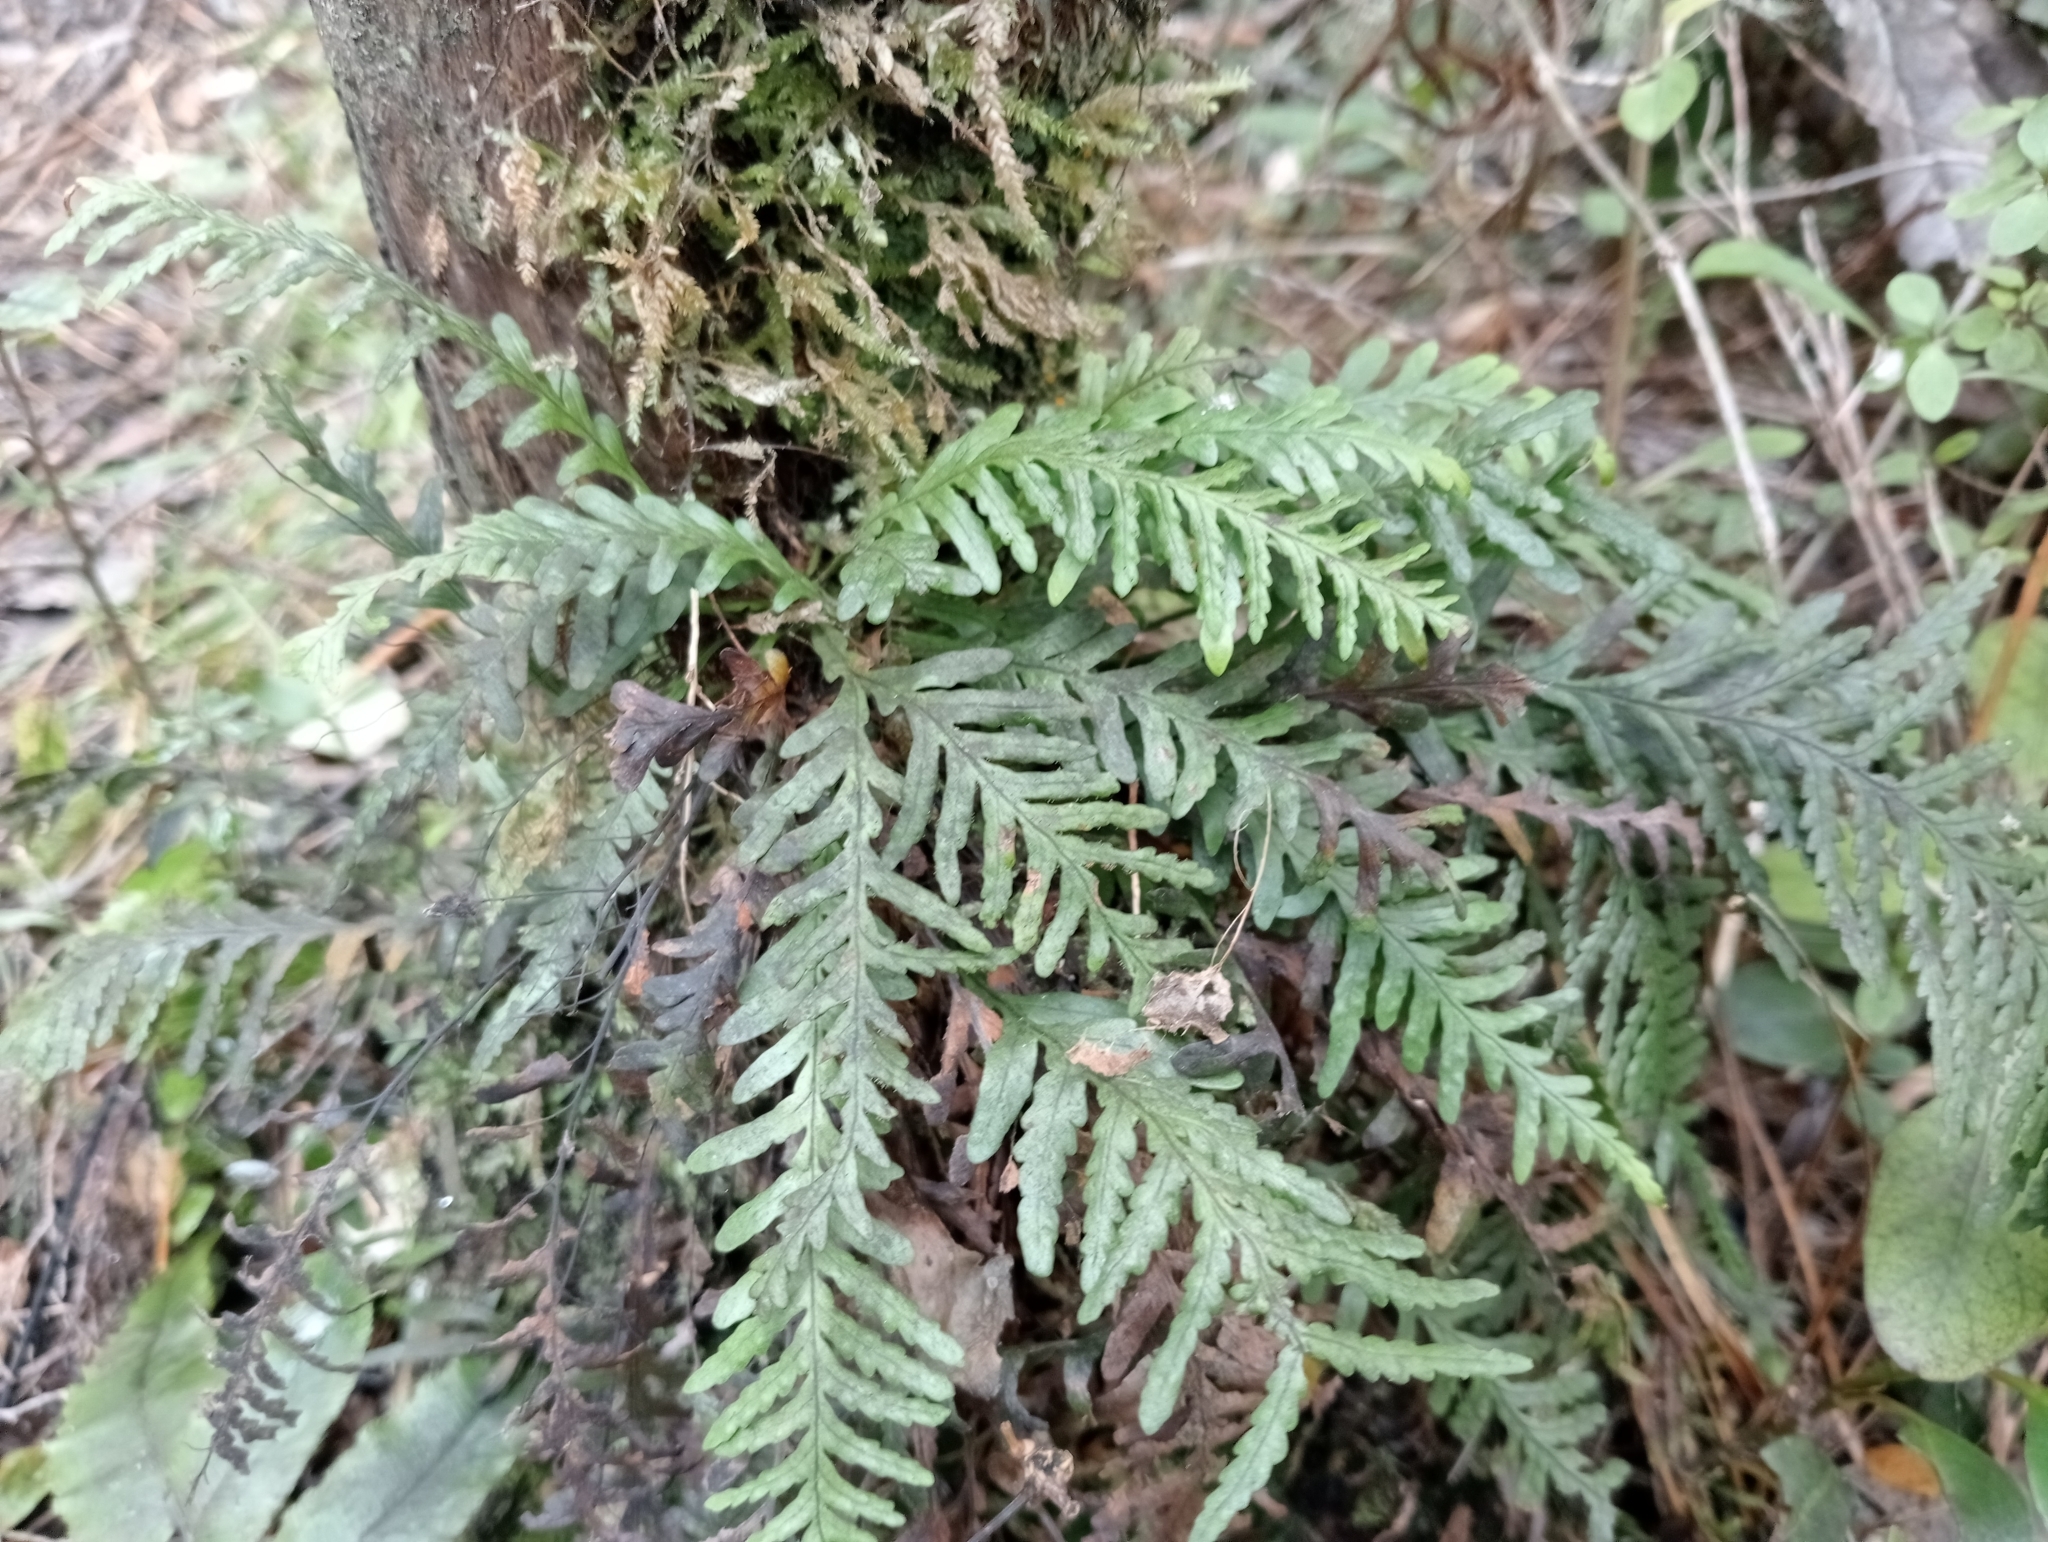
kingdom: Plantae
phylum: Tracheophyta
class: Polypodiopsida
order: Polypodiales
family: Polypodiaceae
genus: Notogrammitis
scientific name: Notogrammitis heterophylla
